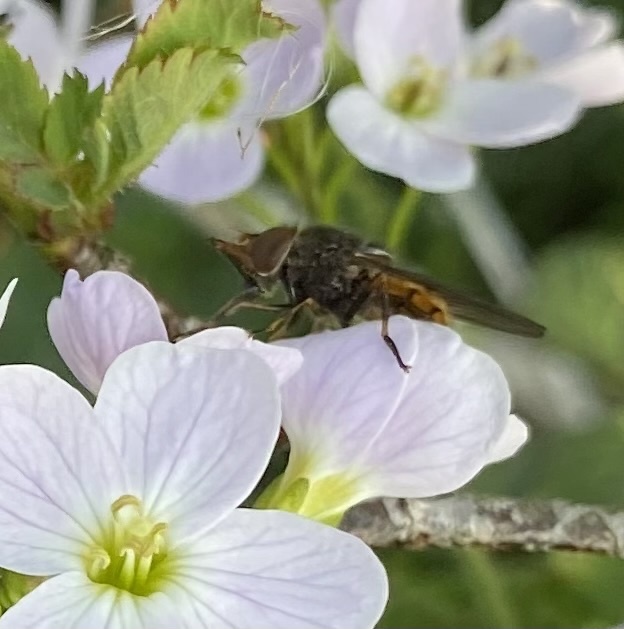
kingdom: Animalia
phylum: Arthropoda
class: Insecta
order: Diptera
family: Syrphidae
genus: Rhingia
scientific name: Rhingia campestris
